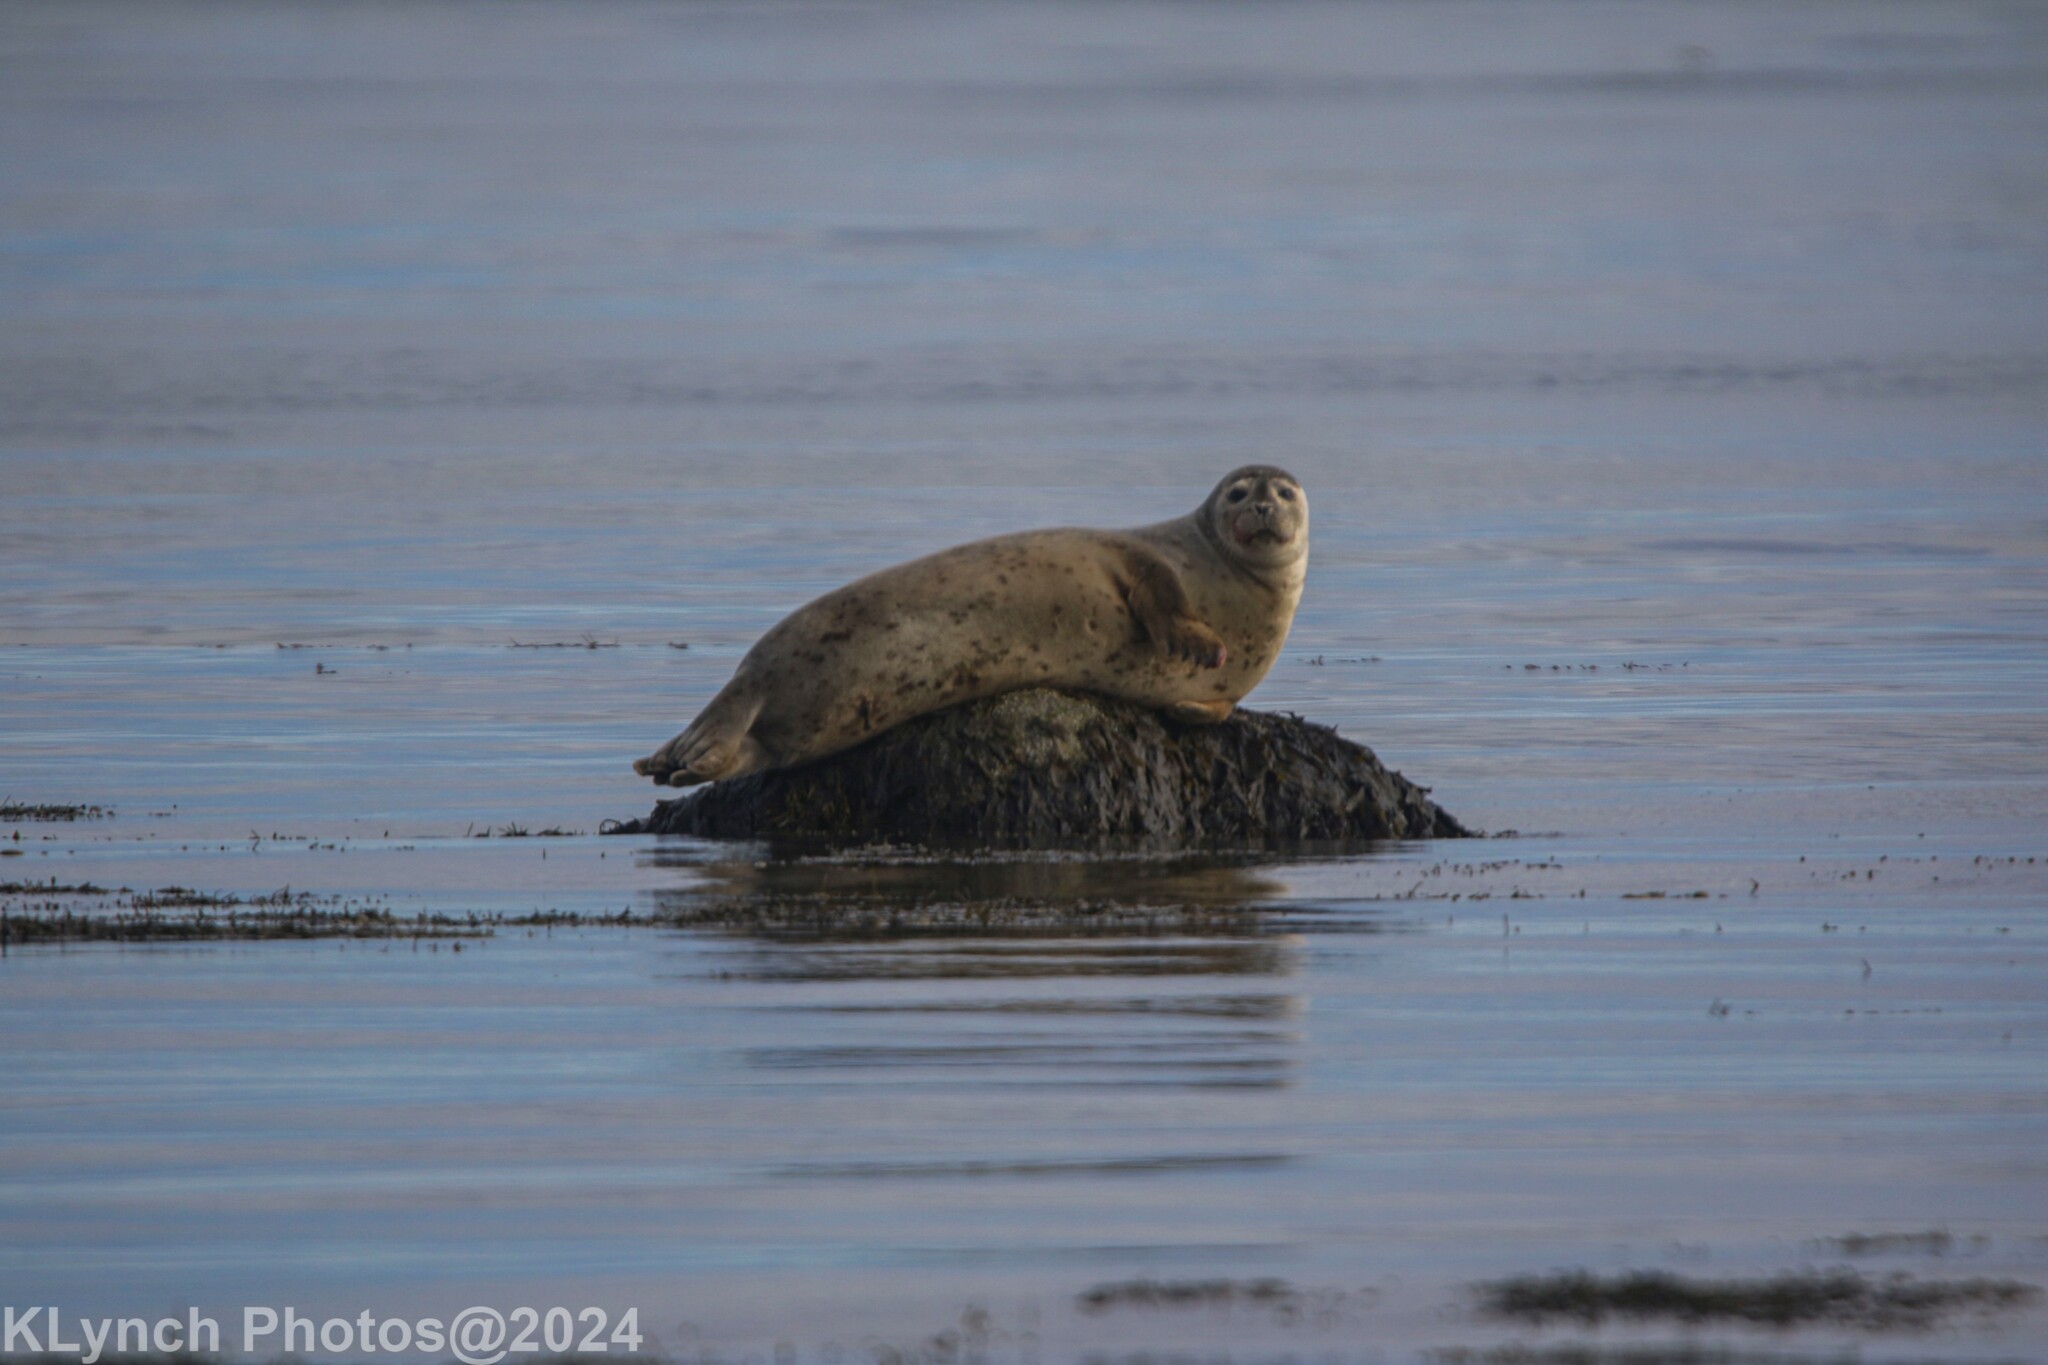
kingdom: Animalia
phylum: Chordata
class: Mammalia
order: Carnivora
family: Phocidae
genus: Phoca
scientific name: Phoca vitulina
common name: Harbor seal
